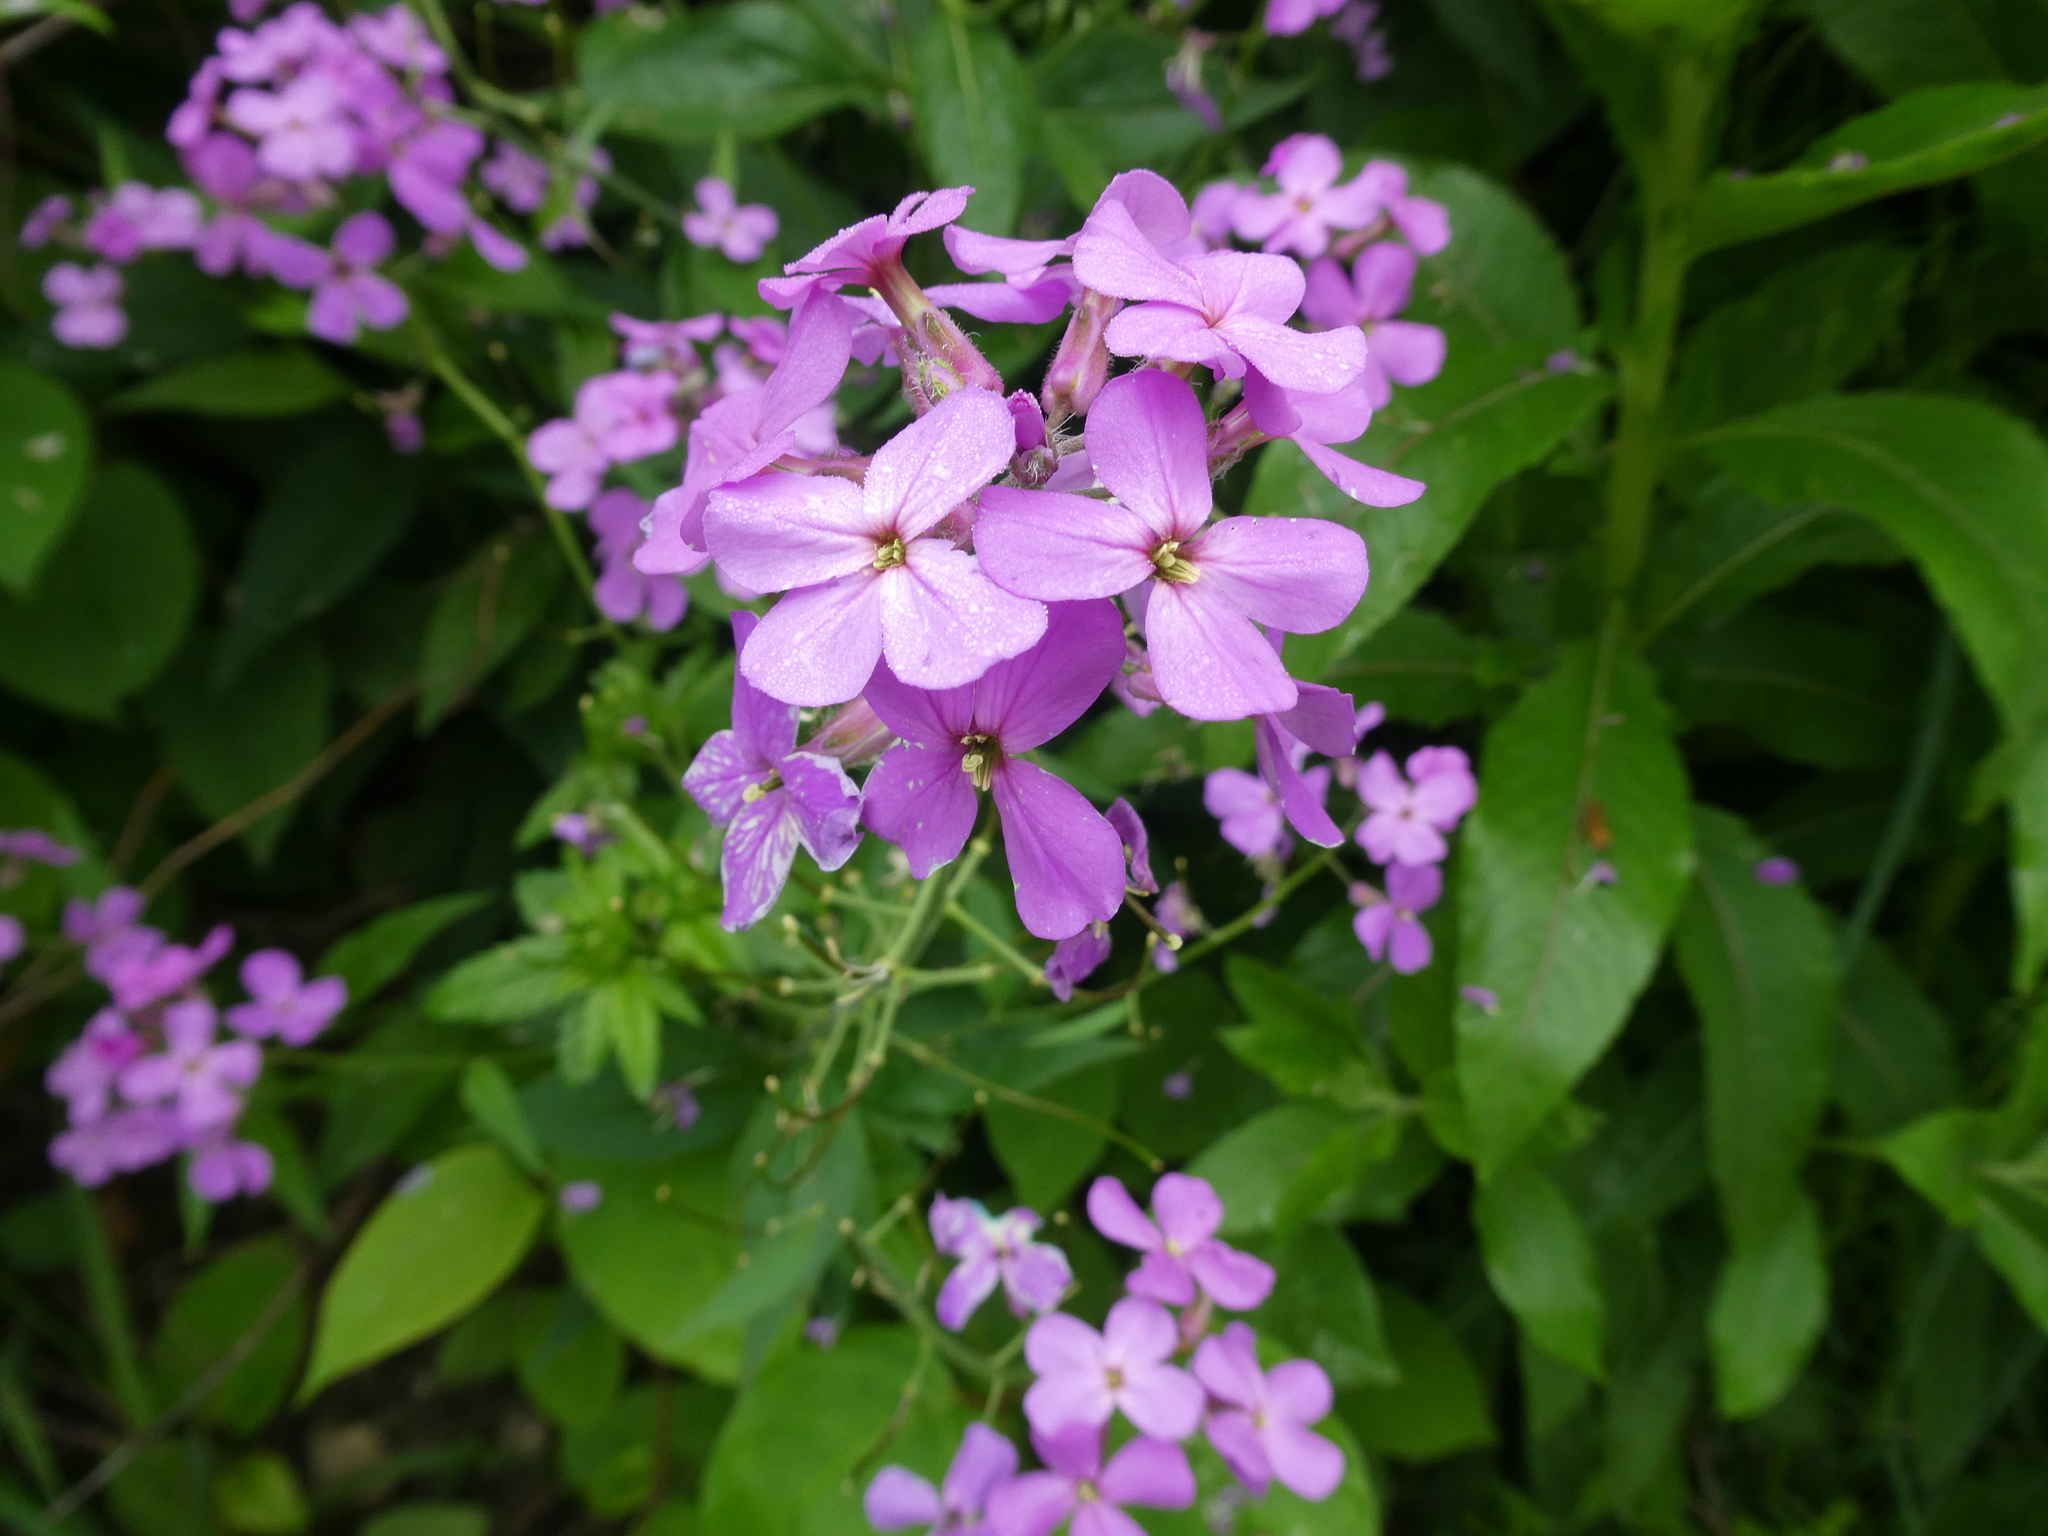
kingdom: Plantae
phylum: Tracheophyta
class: Magnoliopsida
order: Brassicales
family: Brassicaceae
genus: Hesperis
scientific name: Hesperis matronalis
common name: Dame's-violet
